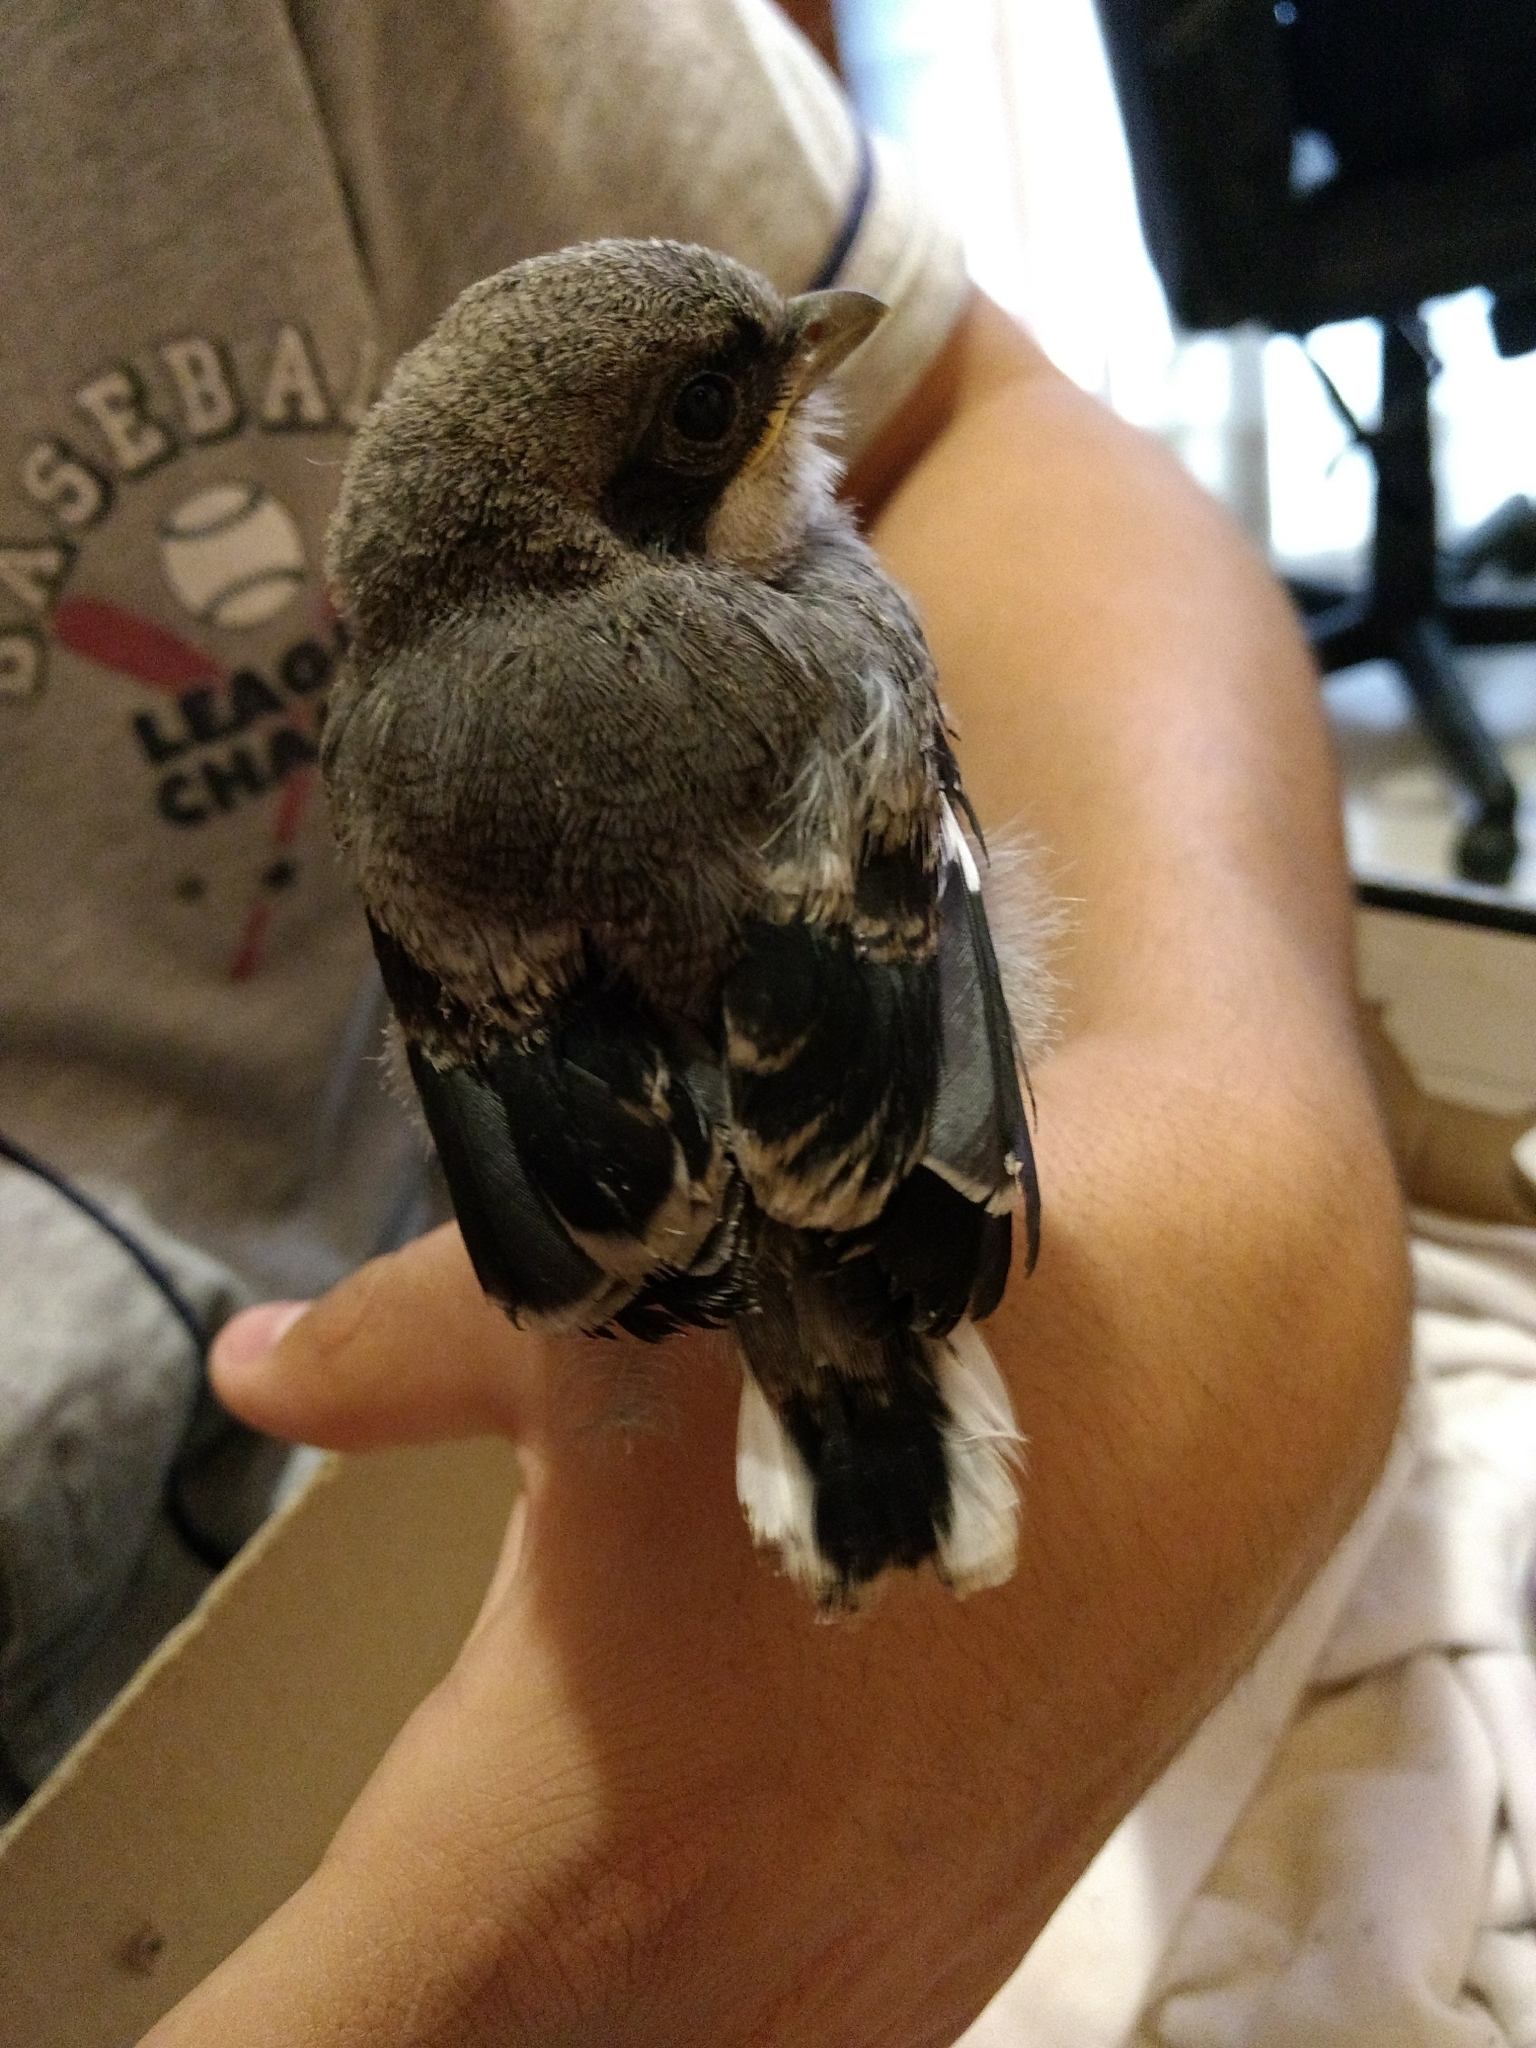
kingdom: Animalia
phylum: Chordata
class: Aves
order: Passeriformes
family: Laniidae
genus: Lanius
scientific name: Lanius ludovicianus
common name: Loggerhead shrike
